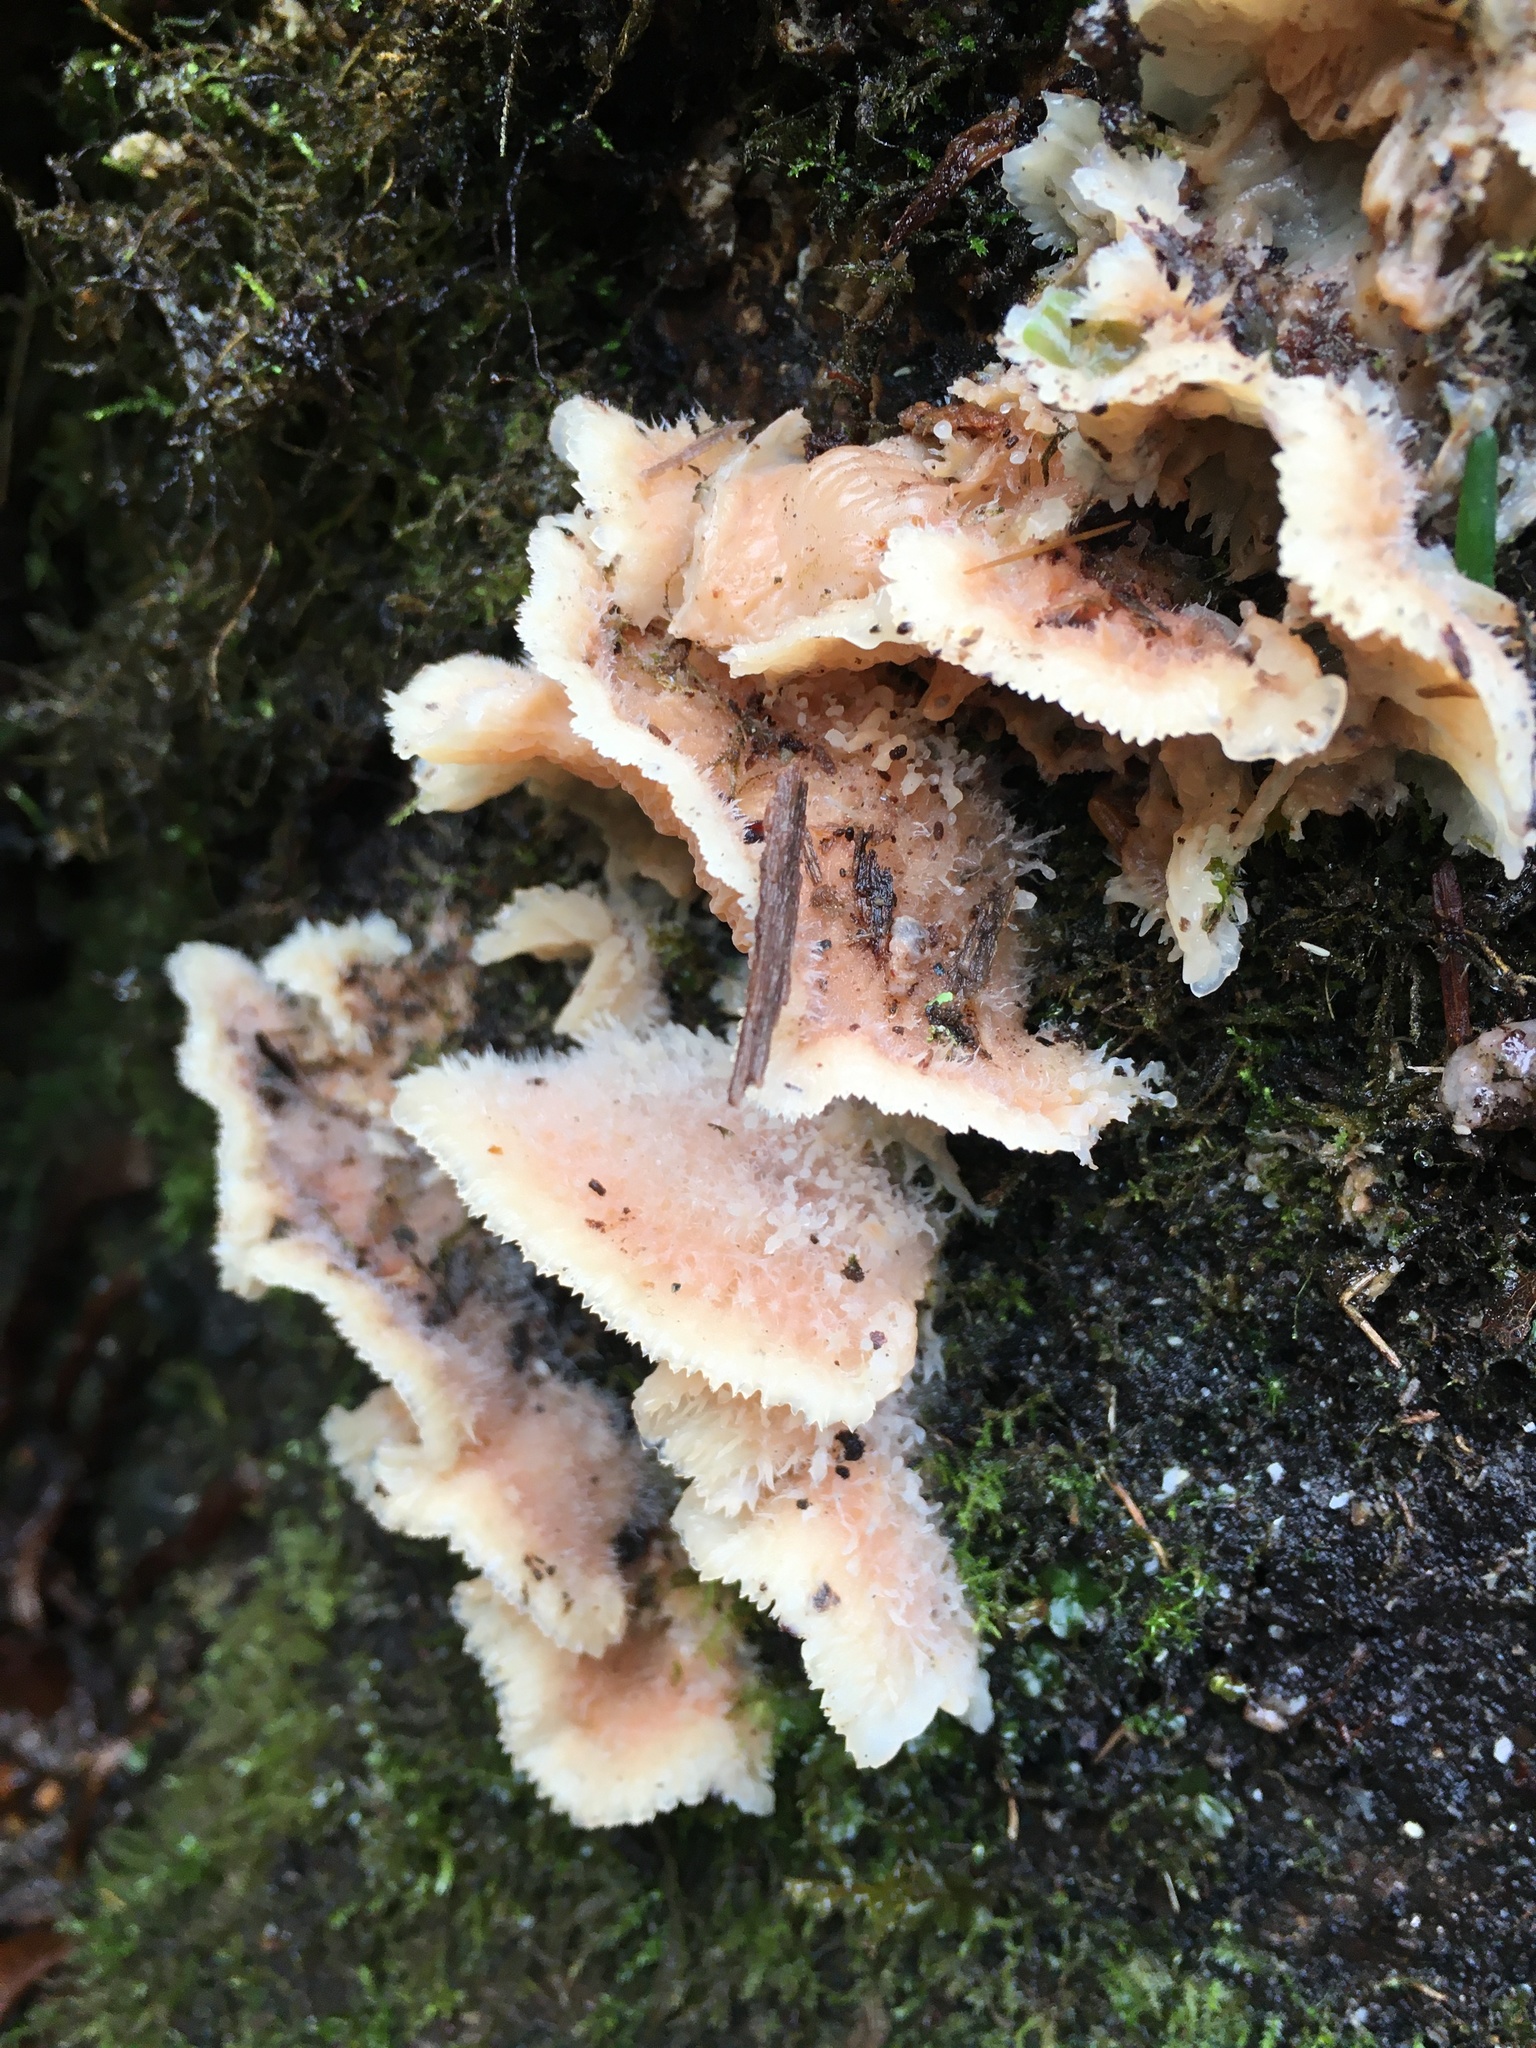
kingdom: Fungi
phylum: Basidiomycota
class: Agaricomycetes
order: Polyporales
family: Meruliaceae
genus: Phlebia
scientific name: Phlebia tremellosa
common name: Jelly rot
